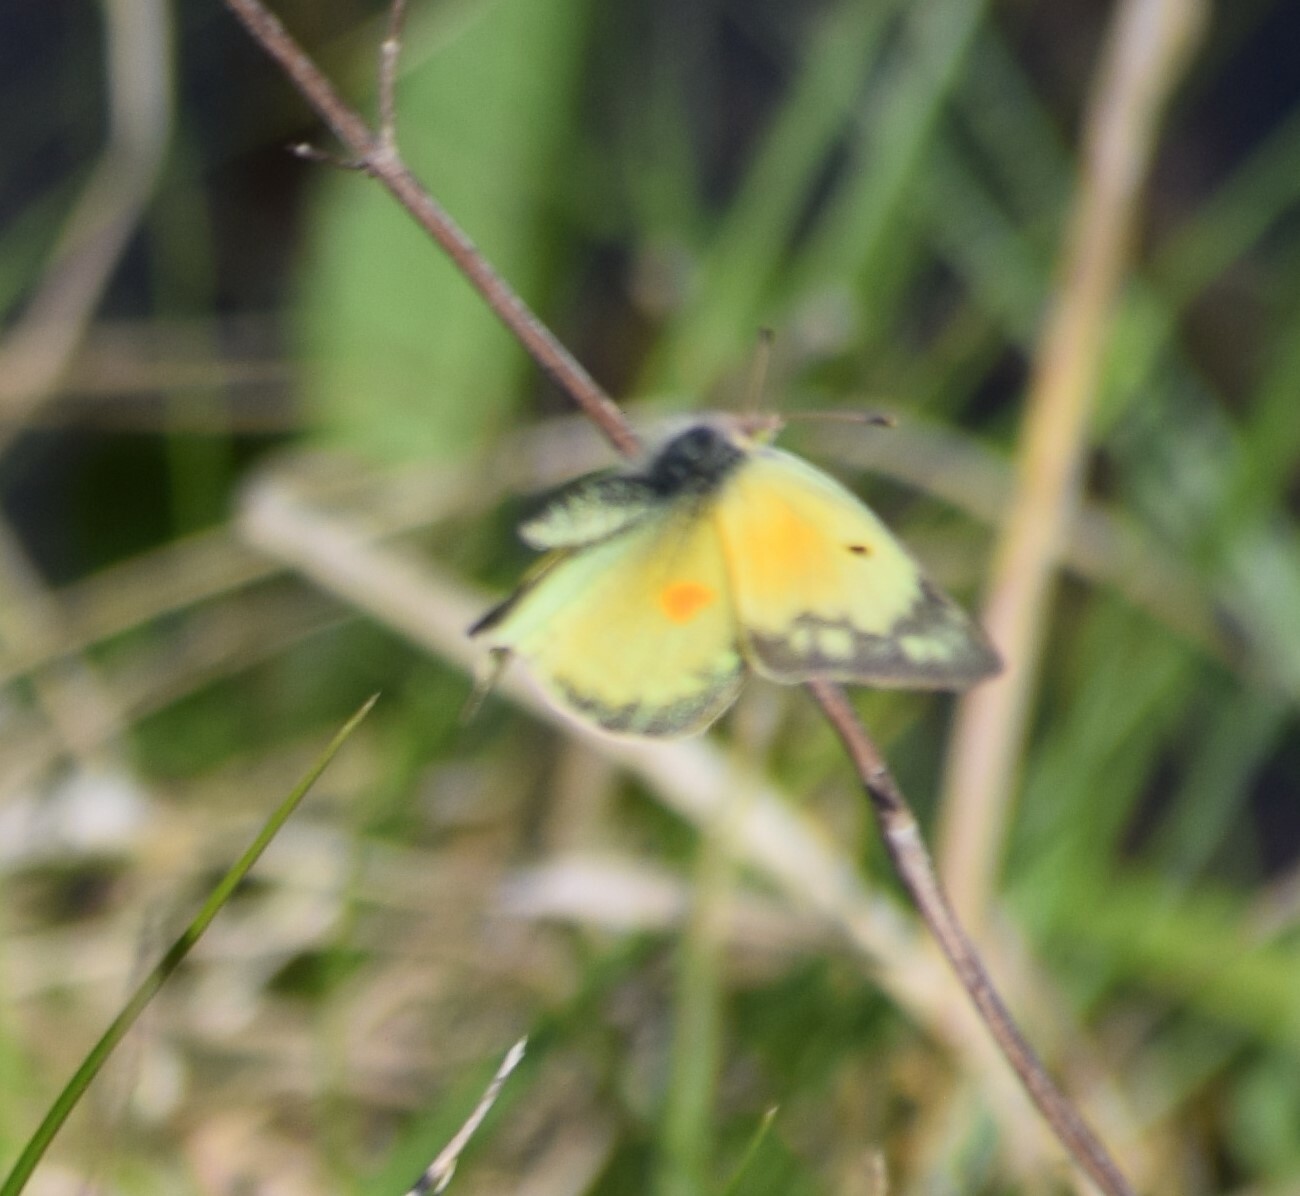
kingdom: Animalia
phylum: Arthropoda
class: Insecta
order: Lepidoptera
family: Pieridae
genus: Colias
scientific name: Colias eurytheme
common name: Alfalfa butterfly
